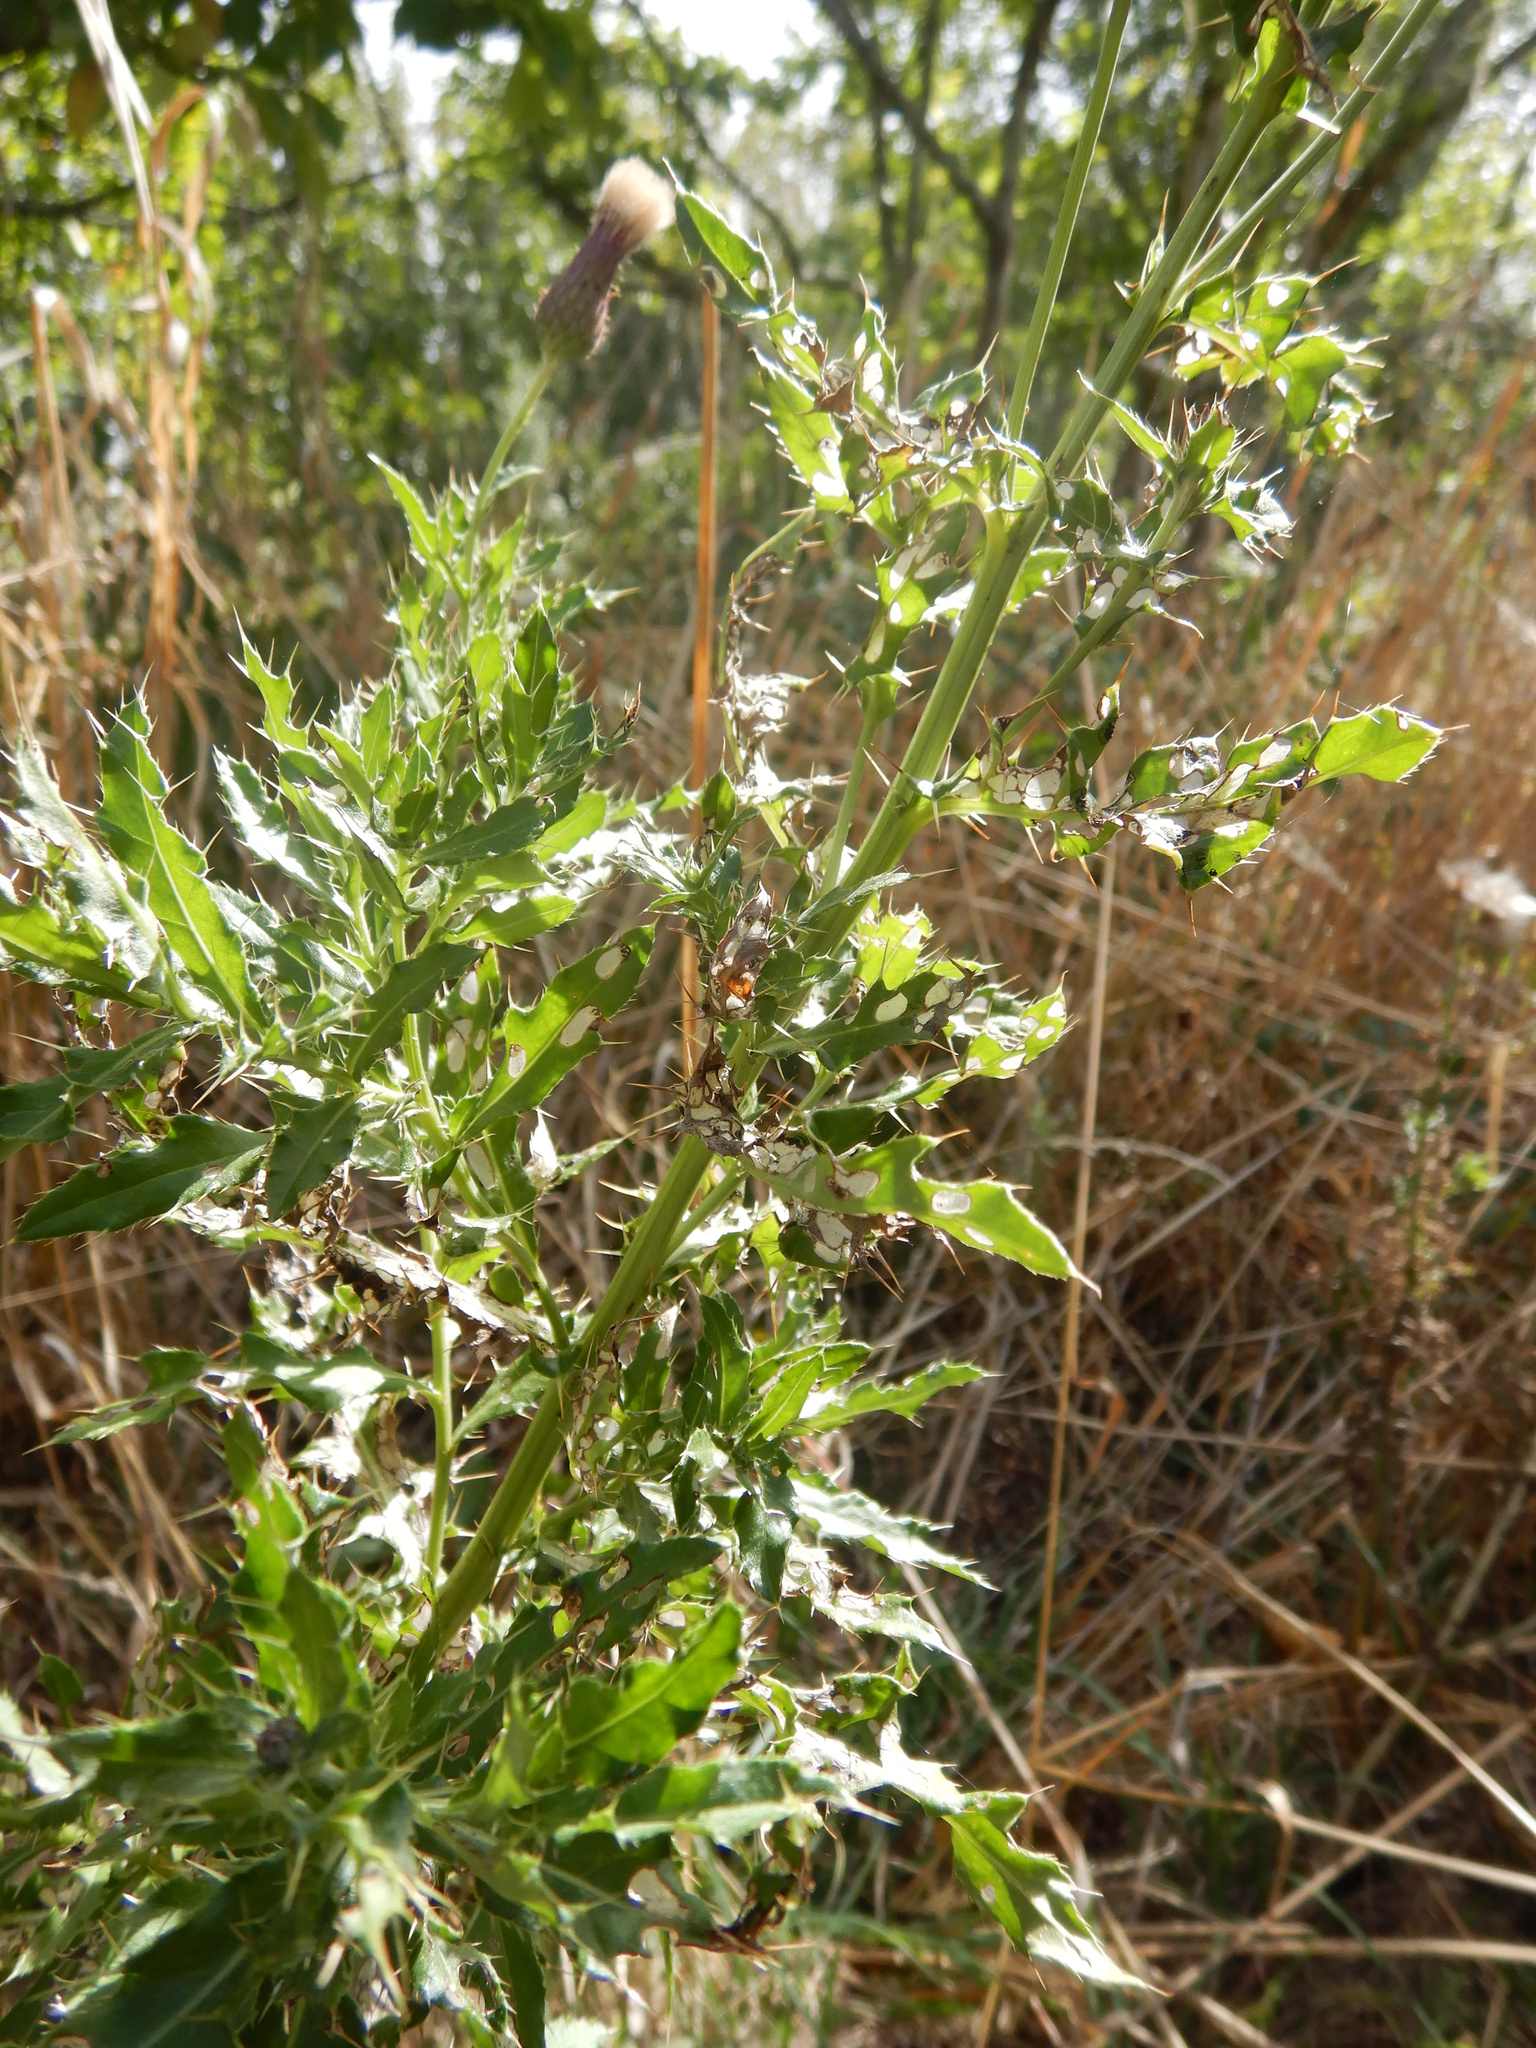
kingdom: Plantae
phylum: Tracheophyta
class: Magnoliopsida
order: Asterales
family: Asteraceae
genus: Cirsium
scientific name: Cirsium arvense
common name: Creeping thistle
